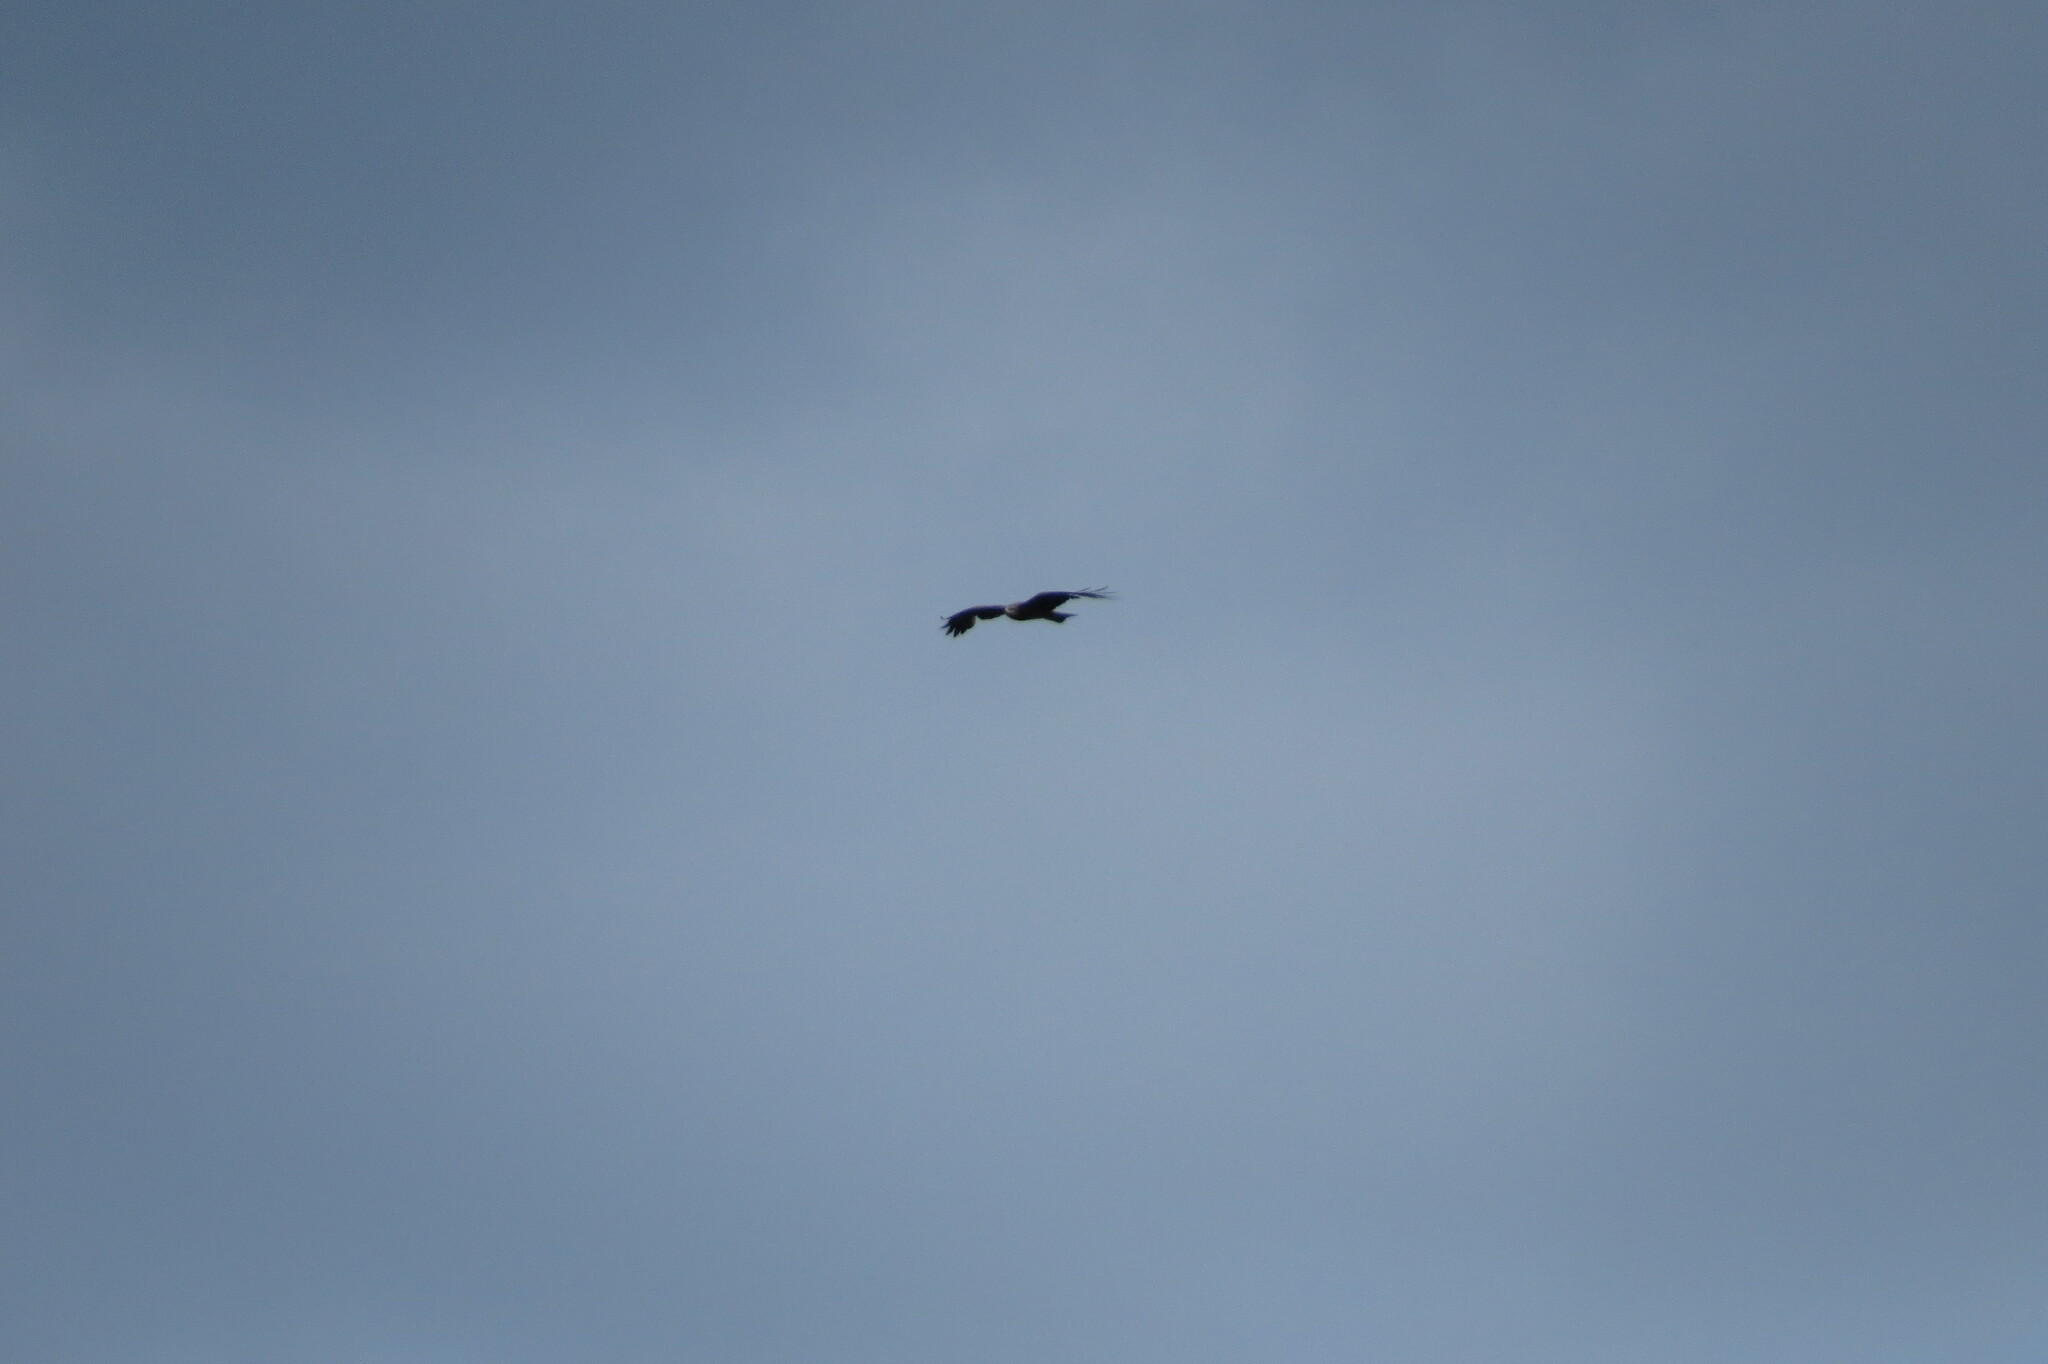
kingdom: Animalia
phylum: Chordata
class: Aves
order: Accipitriformes
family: Accipitridae
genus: Milvus
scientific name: Milvus migrans
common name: Black kite
